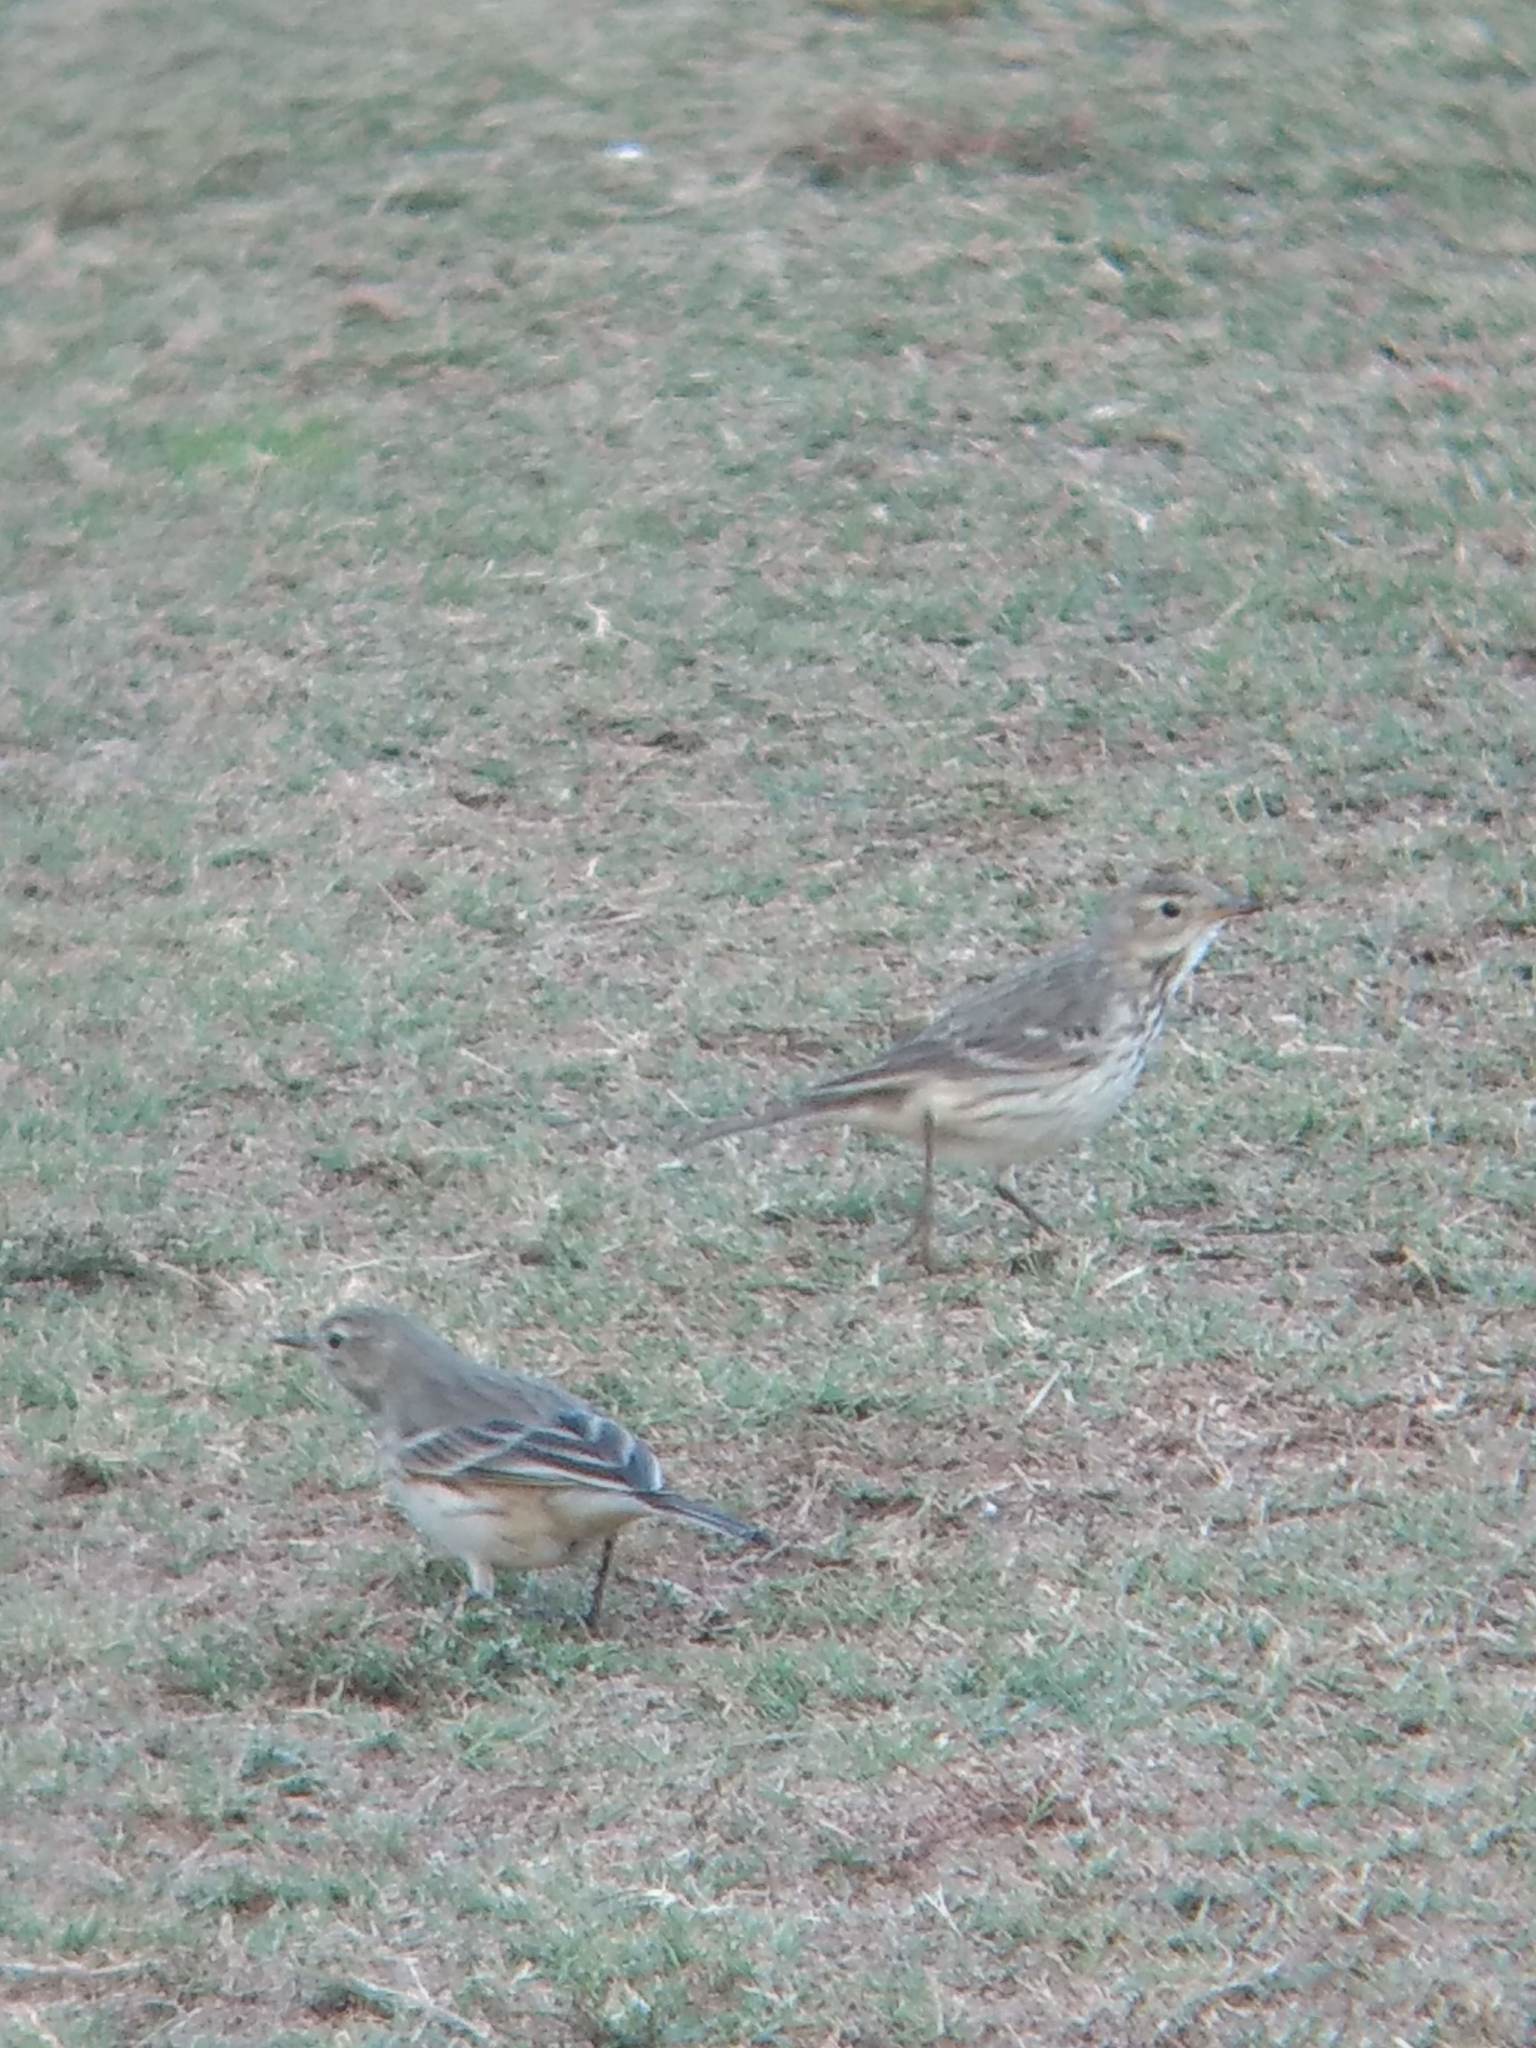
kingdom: Animalia
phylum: Chordata
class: Aves
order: Passeriformes
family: Motacillidae
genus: Anthus
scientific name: Anthus rubescens
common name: Buff-bellied pipit
